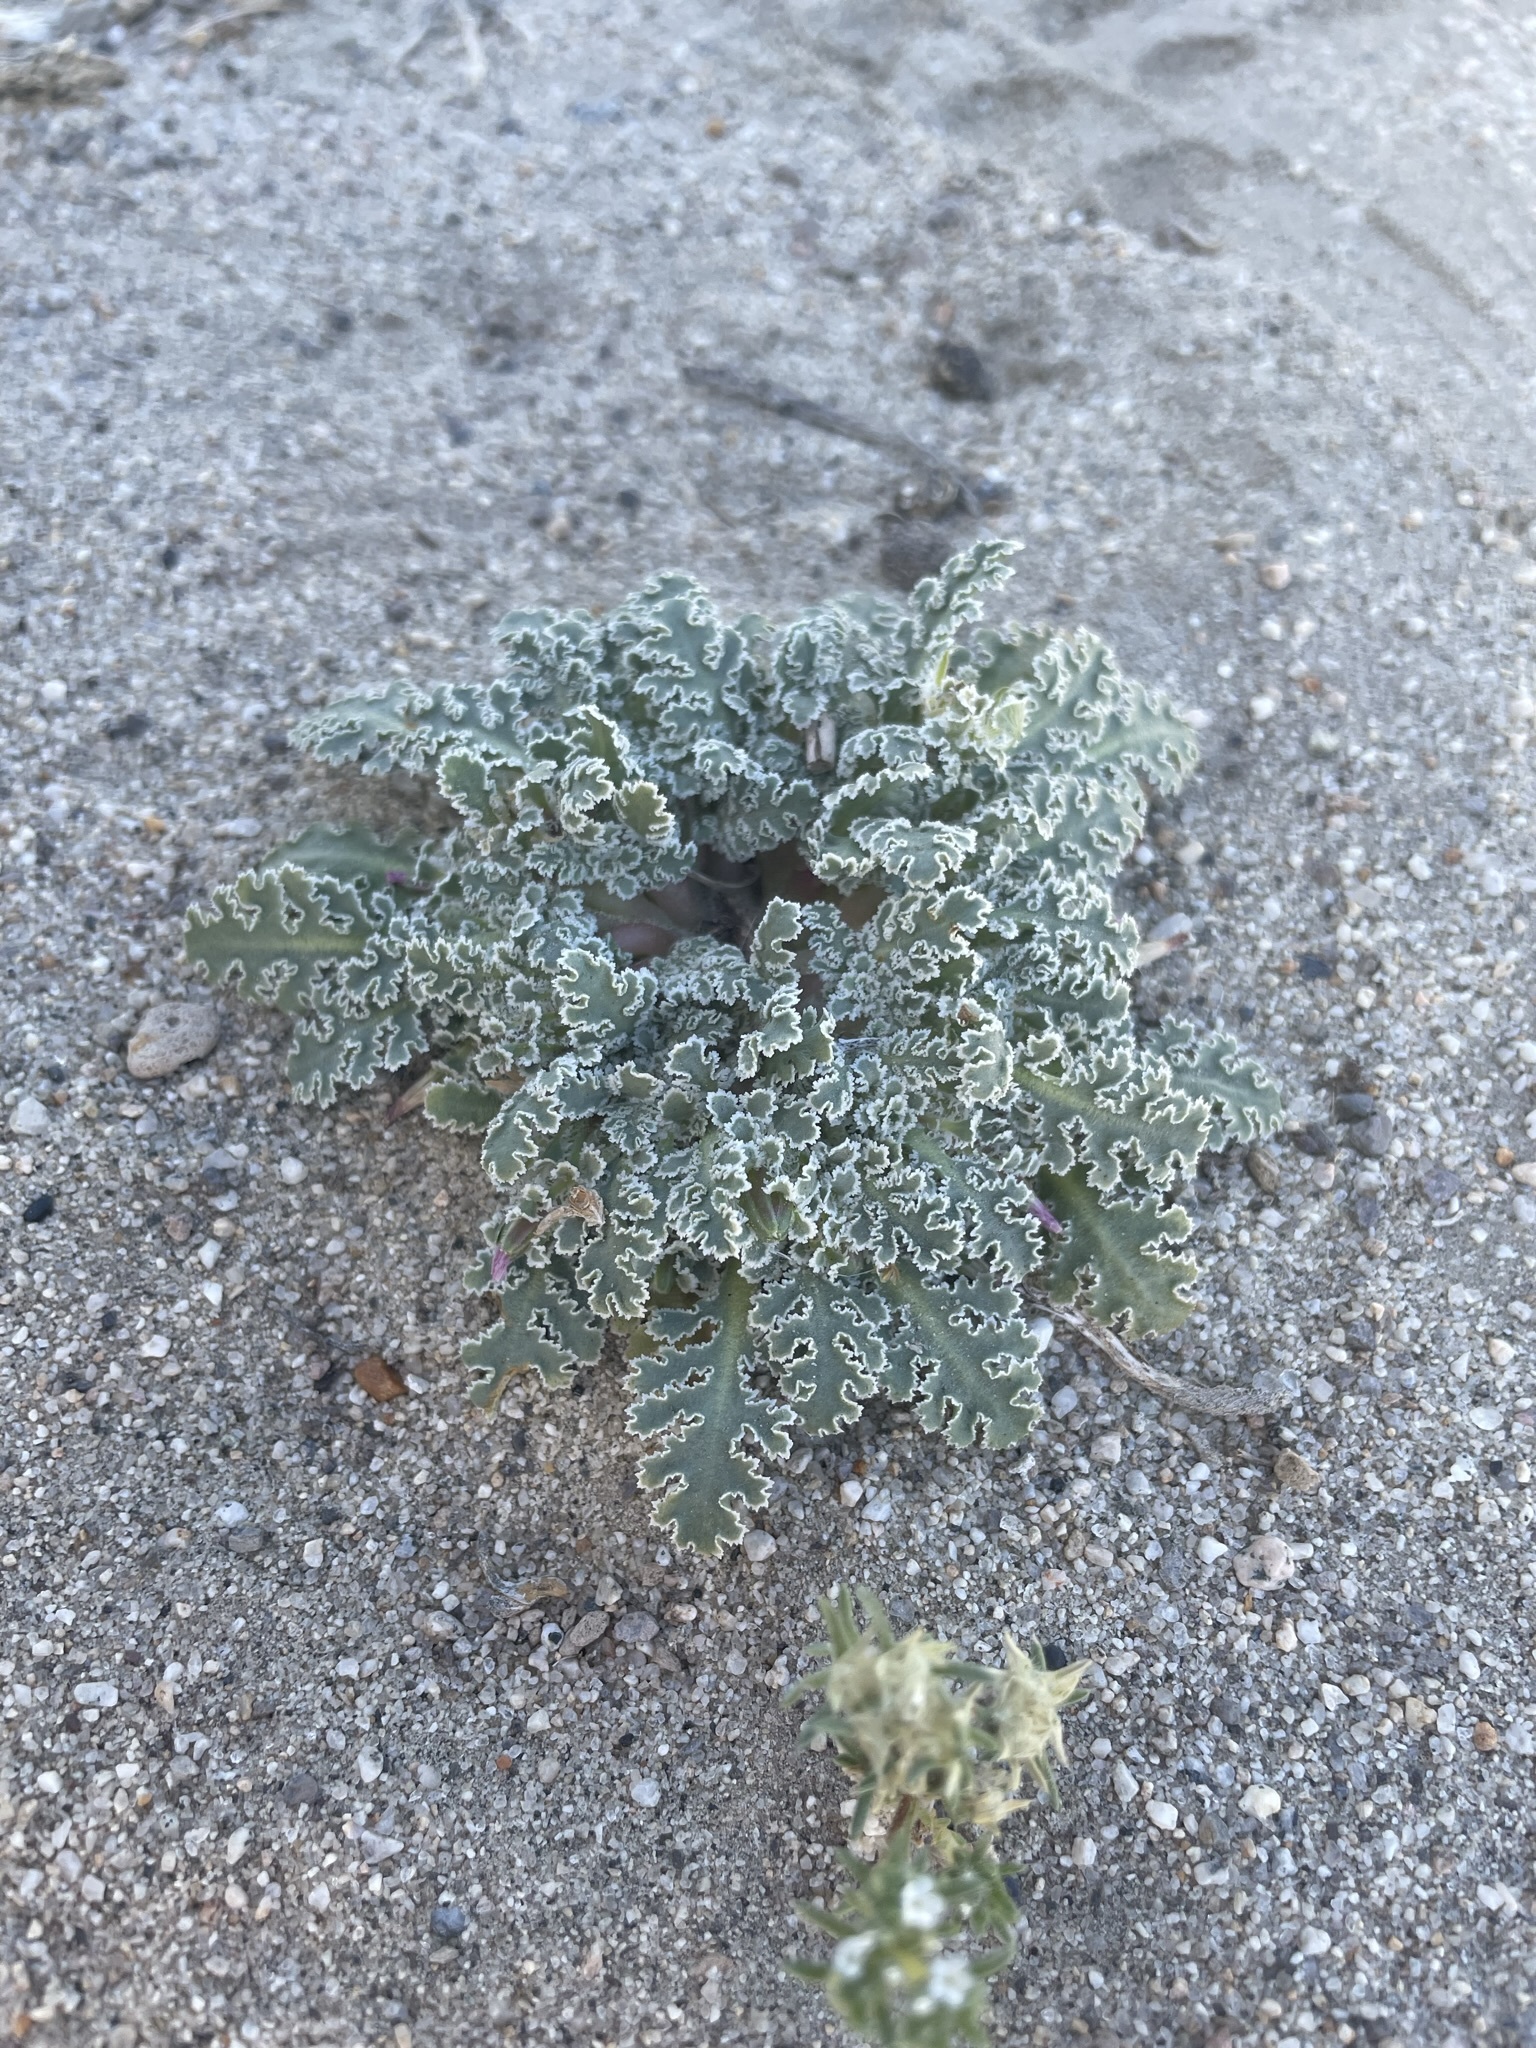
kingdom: Plantae
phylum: Tracheophyta
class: Magnoliopsida
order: Asterales
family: Asteraceae
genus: Glyptopleura
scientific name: Glyptopleura marginata
